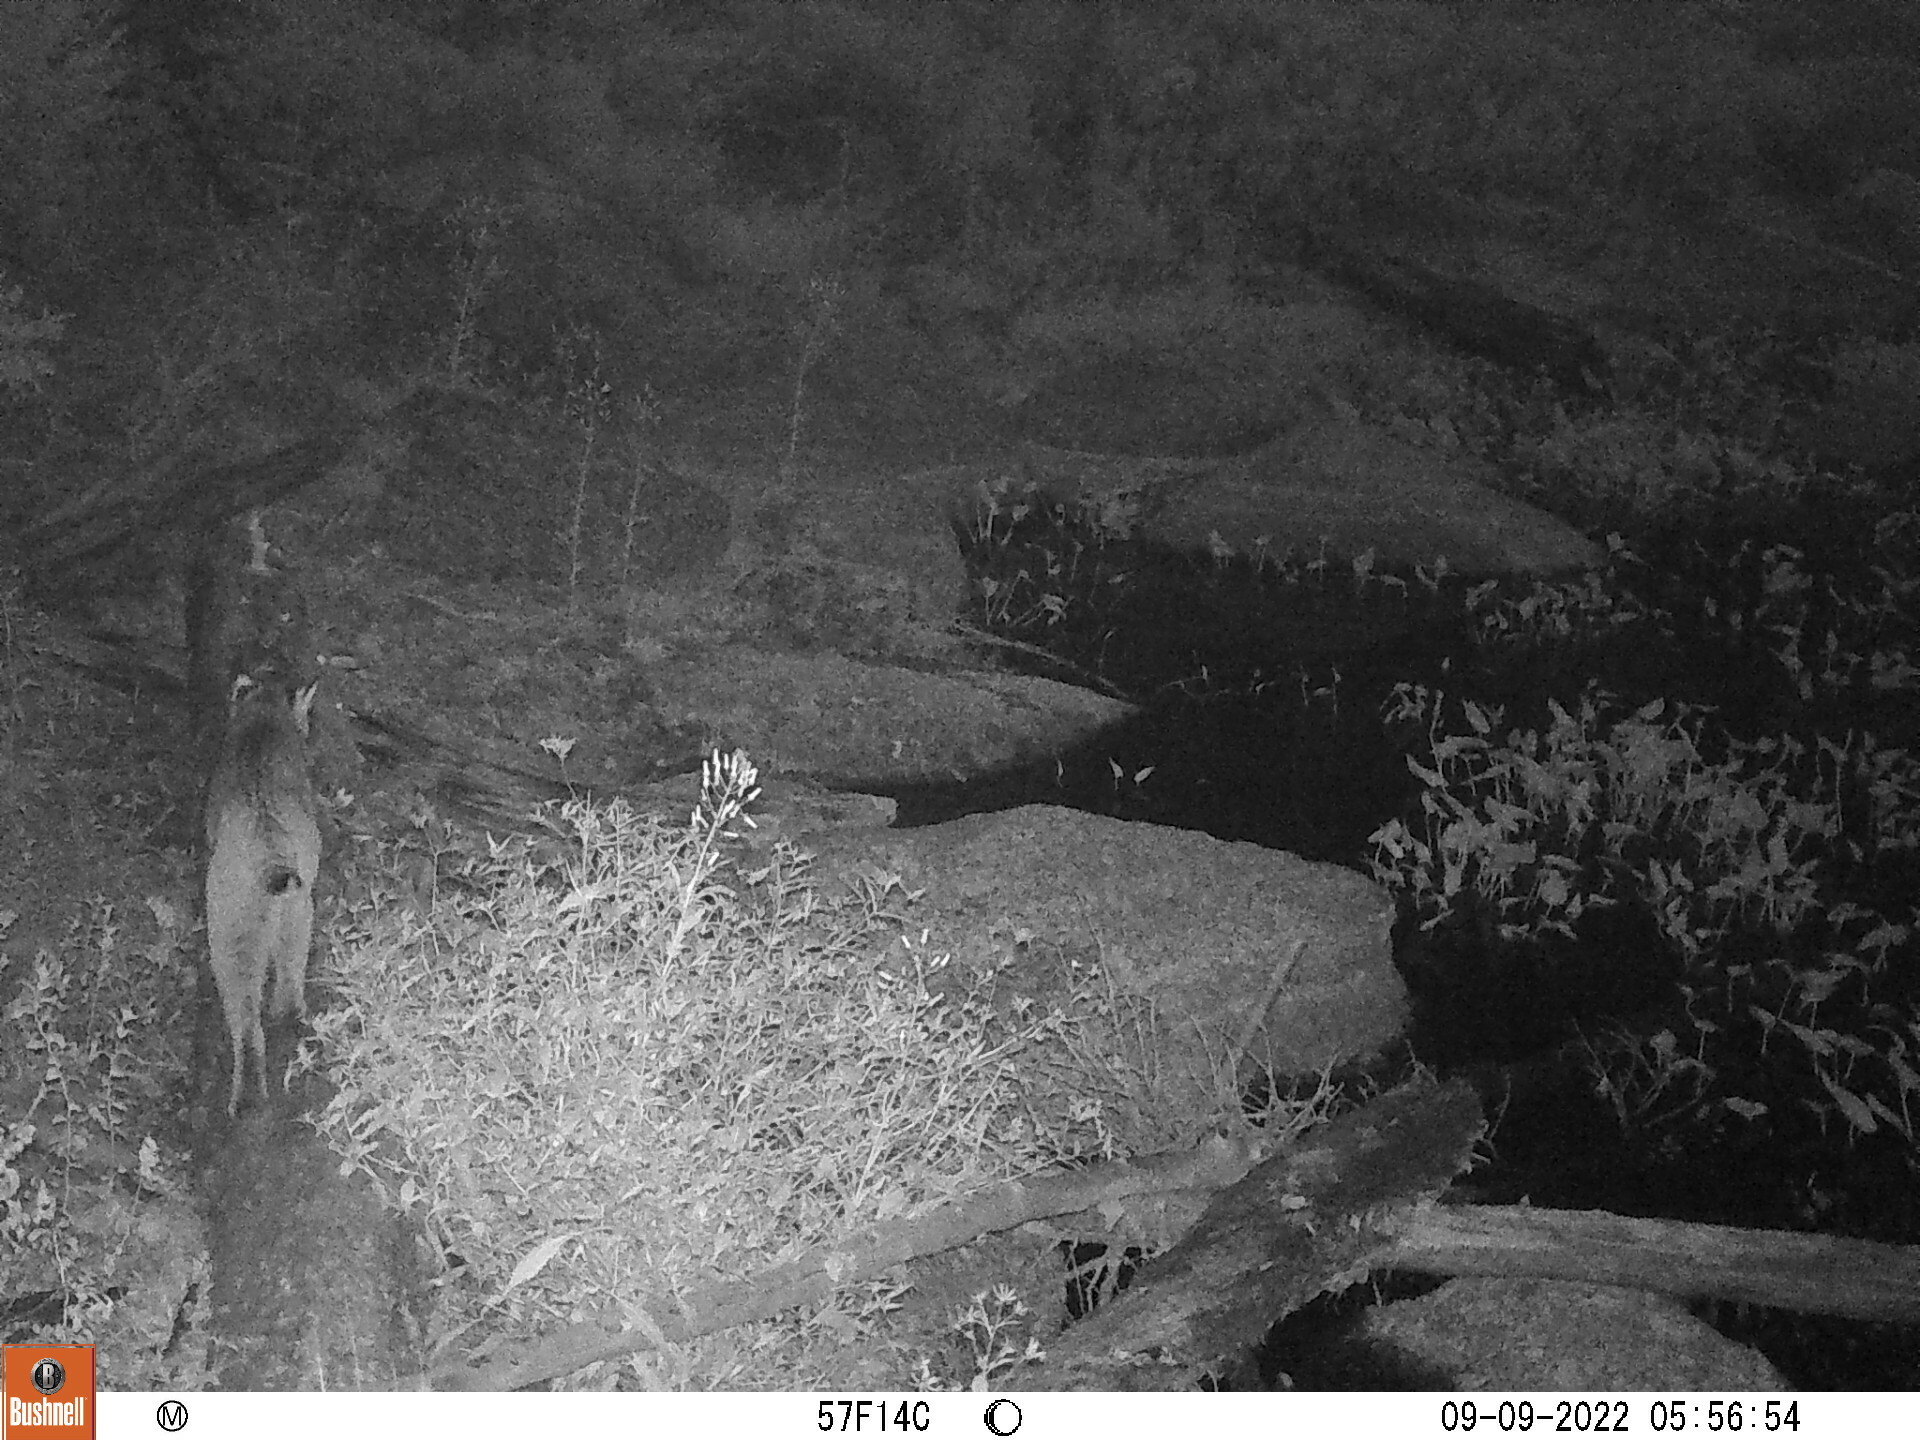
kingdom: Animalia
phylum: Chordata
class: Mammalia
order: Carnivora
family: Felidae
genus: Lynx
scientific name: Lynx rufus
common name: Bobcat
